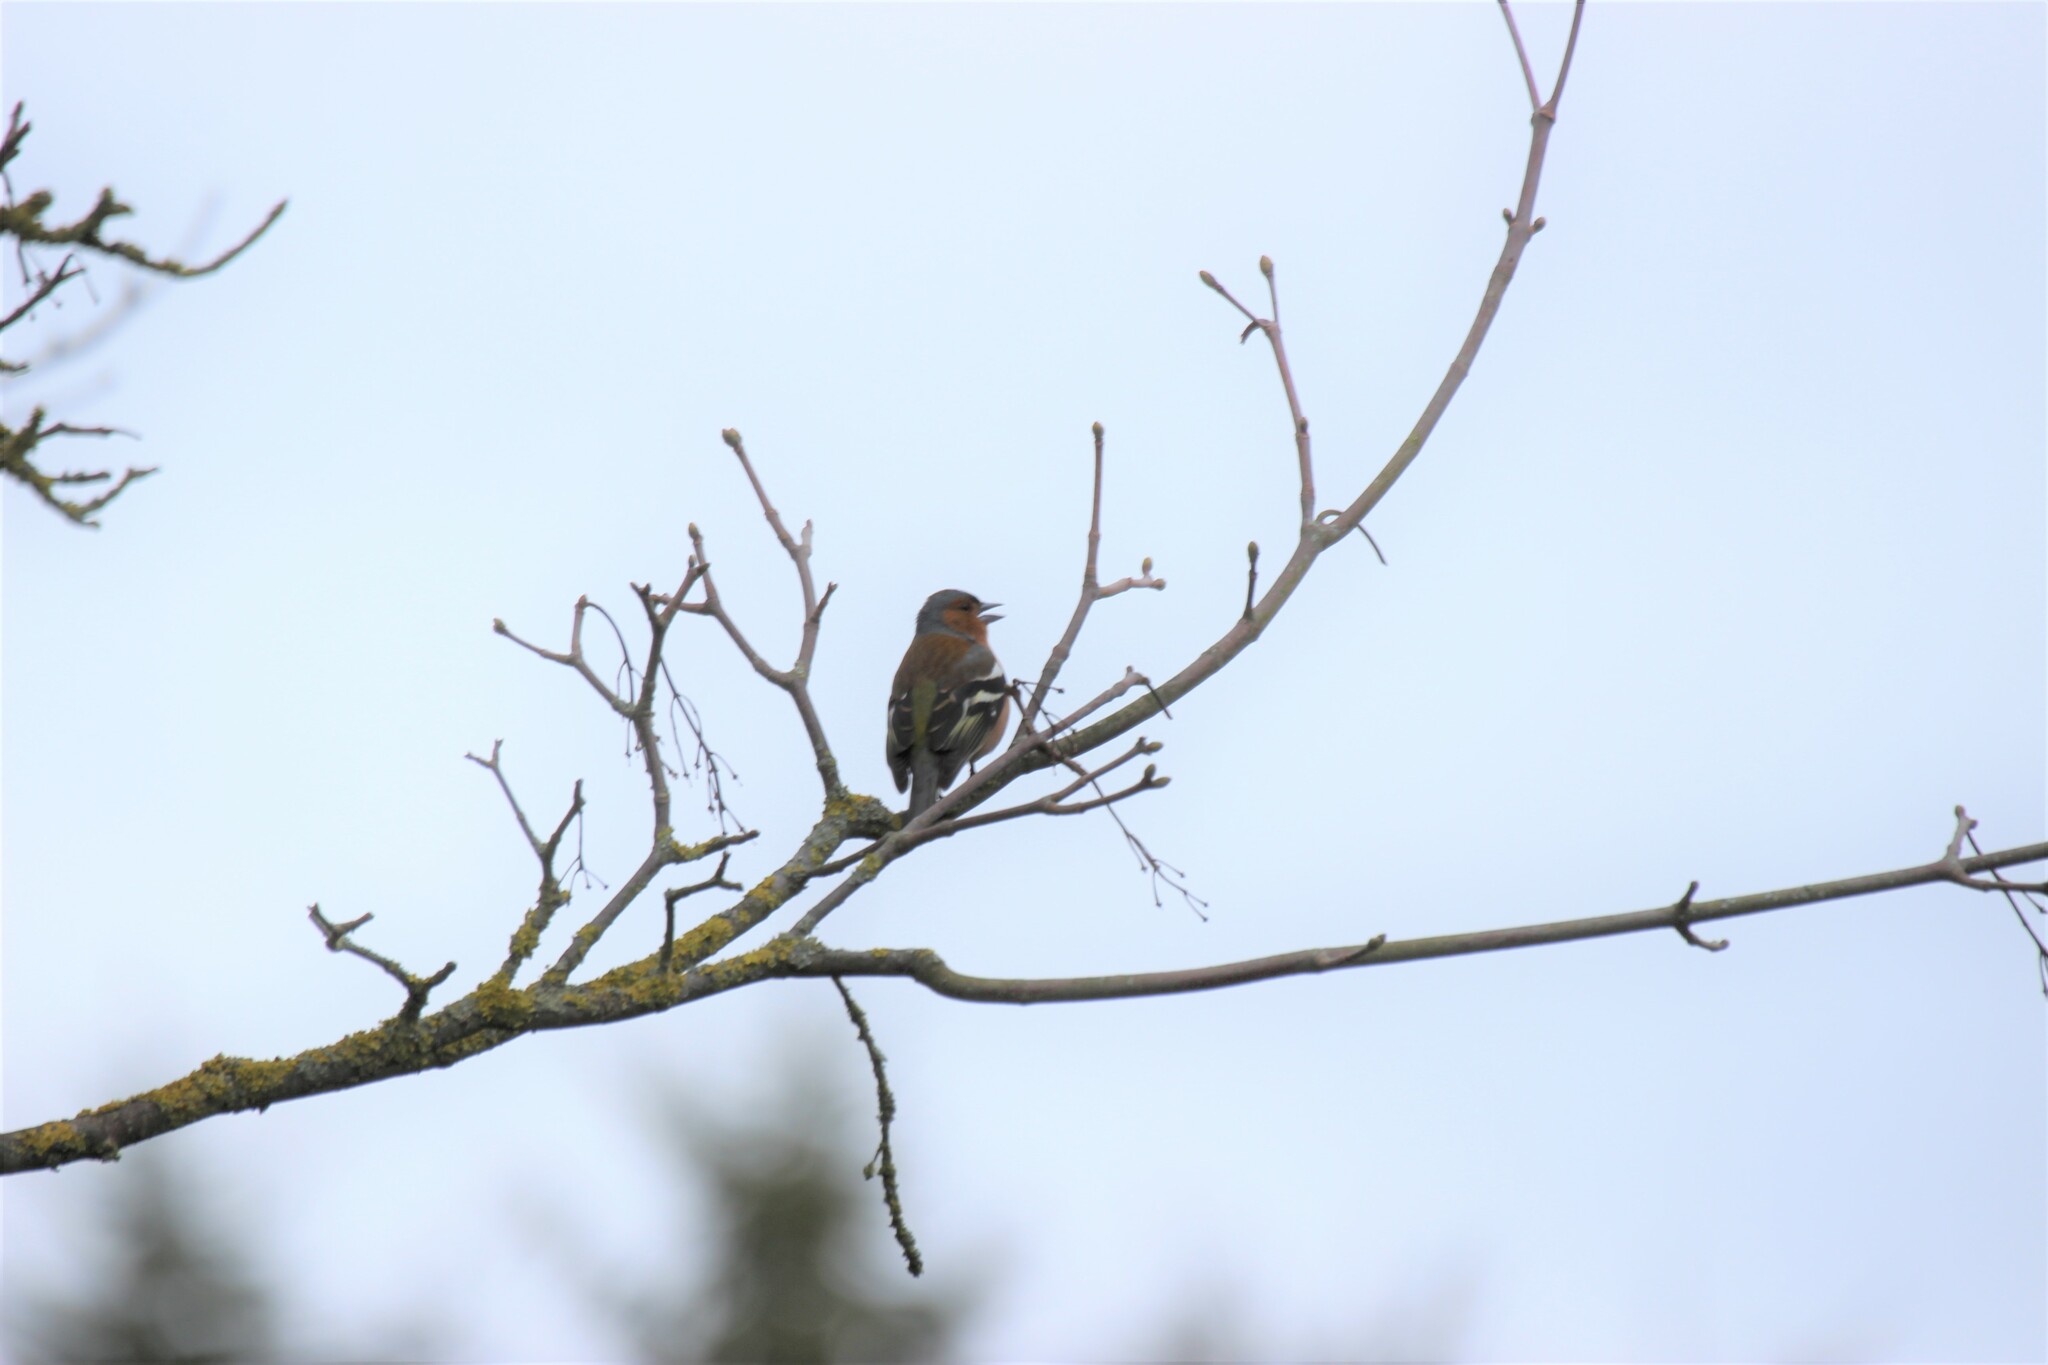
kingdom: Animalia
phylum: Chordata
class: Aves
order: Passeriformes
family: Fringillidae
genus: Fringilla
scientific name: Fringilla coelebs
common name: Common chaffinch
